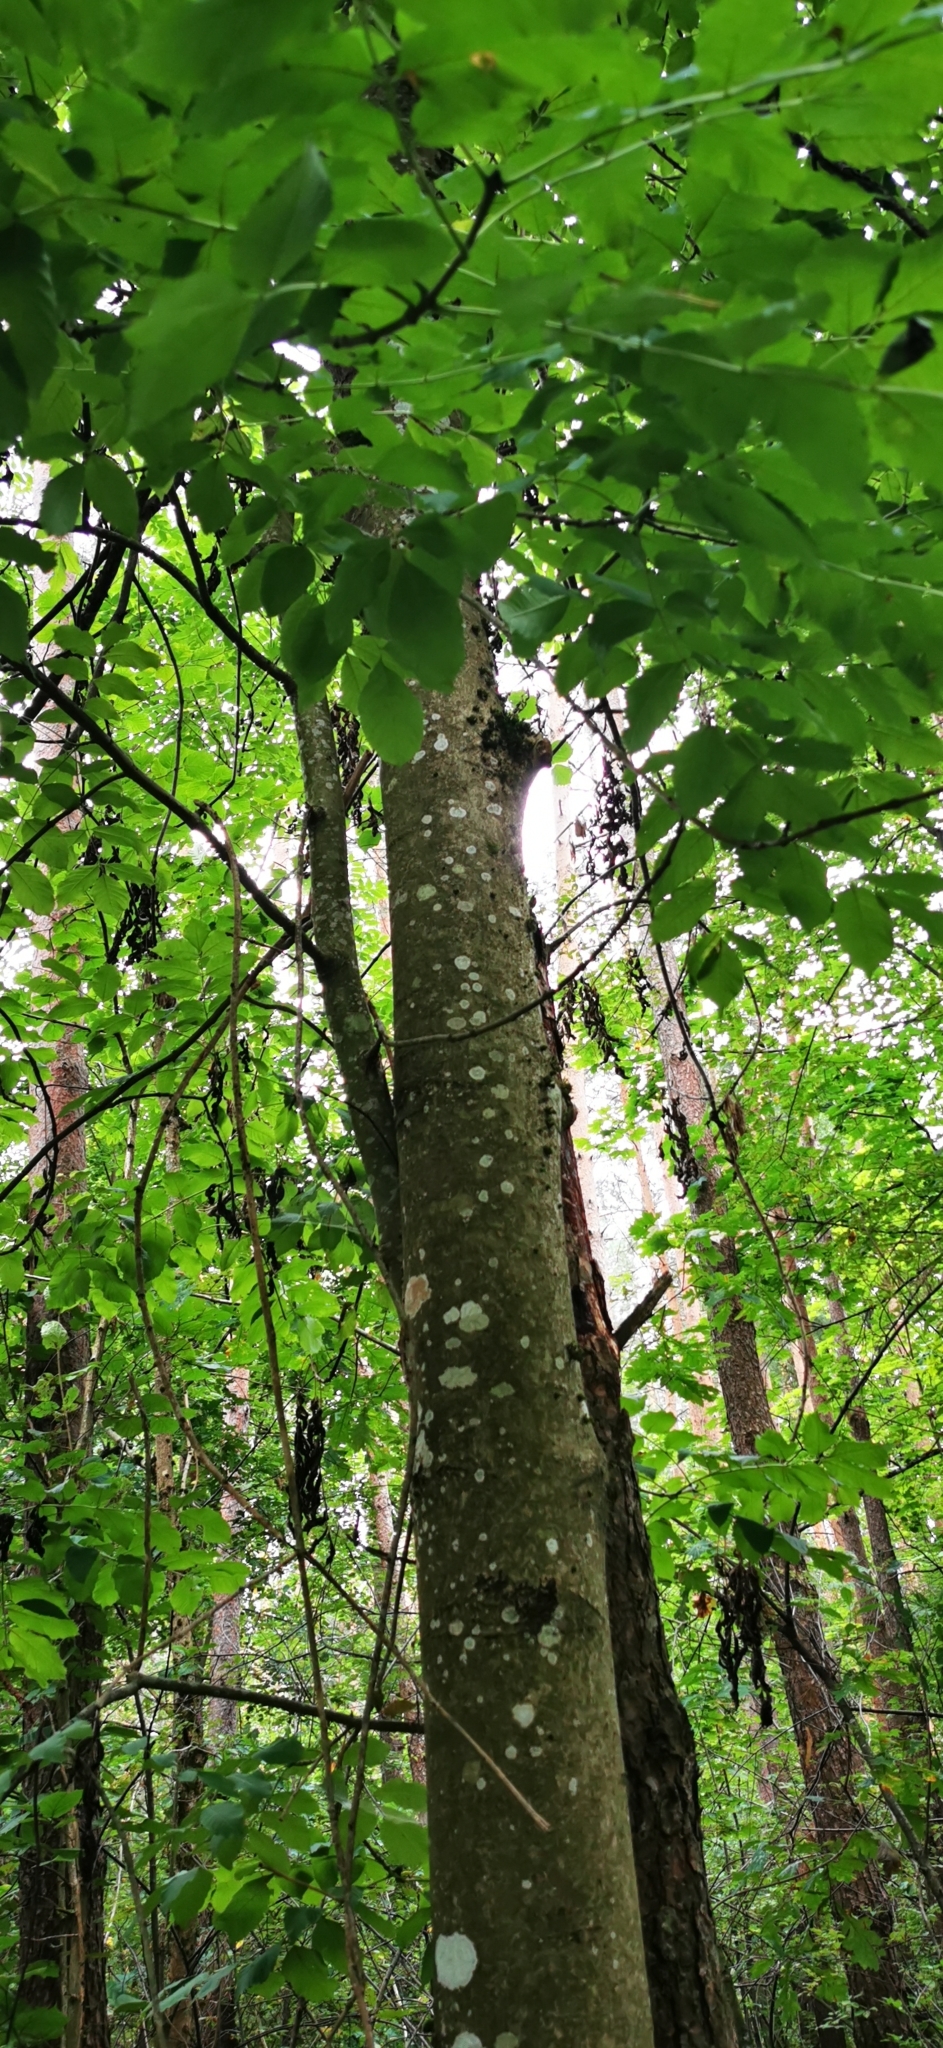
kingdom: Plantae
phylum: Tracheophyta
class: Magnoliopsida
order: Lamiales
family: Oleaceae
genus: Fraxinus
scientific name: Fraxinus excelsior
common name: European ash
